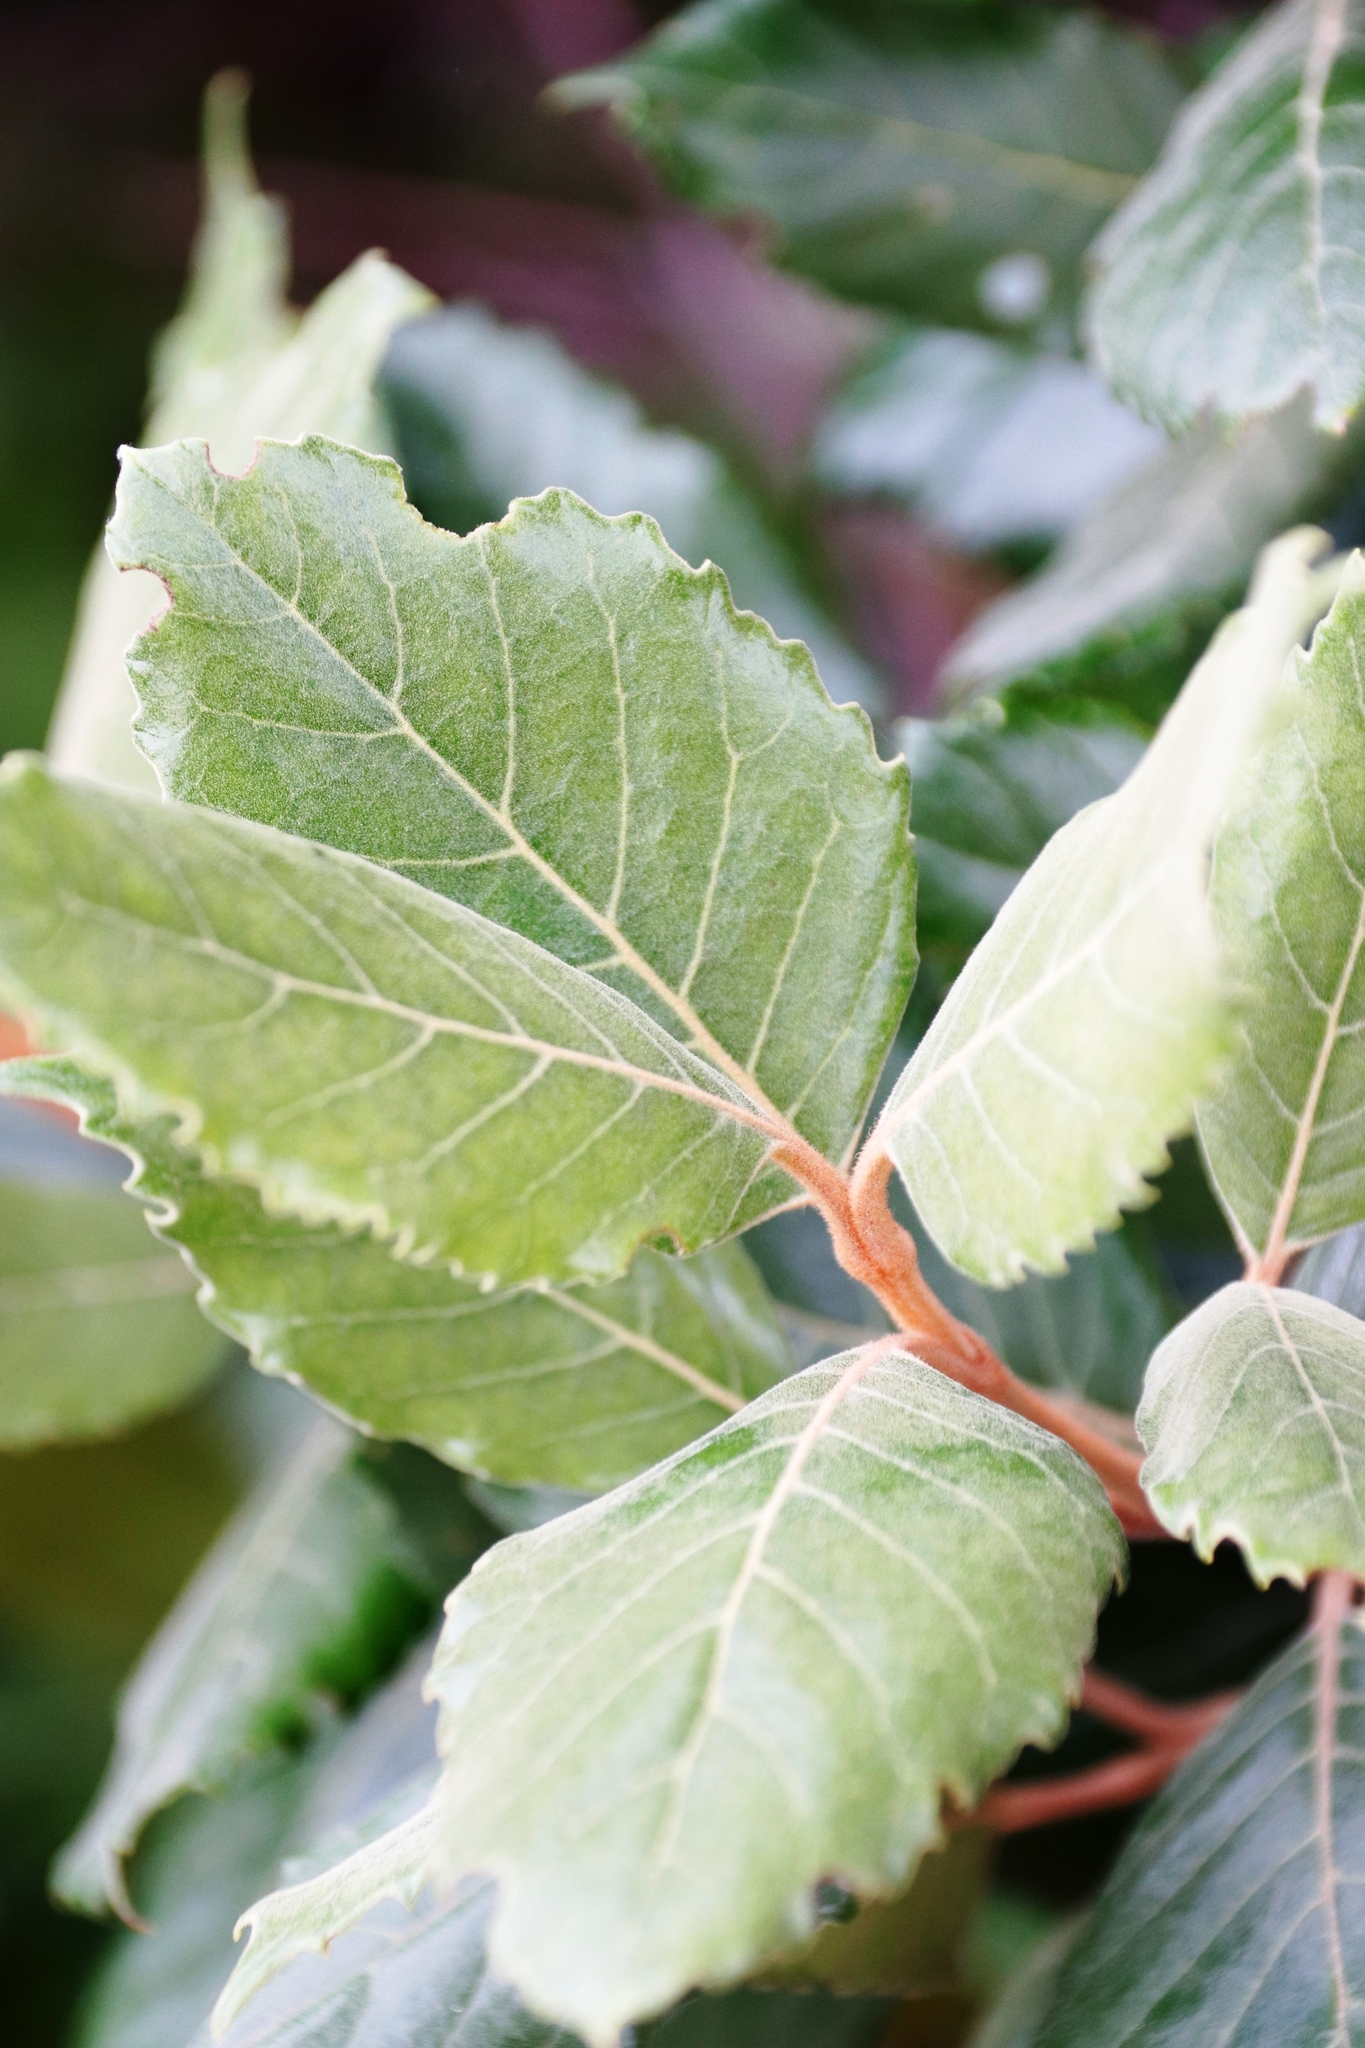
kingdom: Plantae
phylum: Tracheophyta
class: Magnoliopsida
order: Cornales
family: Curtisiaceae
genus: Curtisia
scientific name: Curtisia dentata
